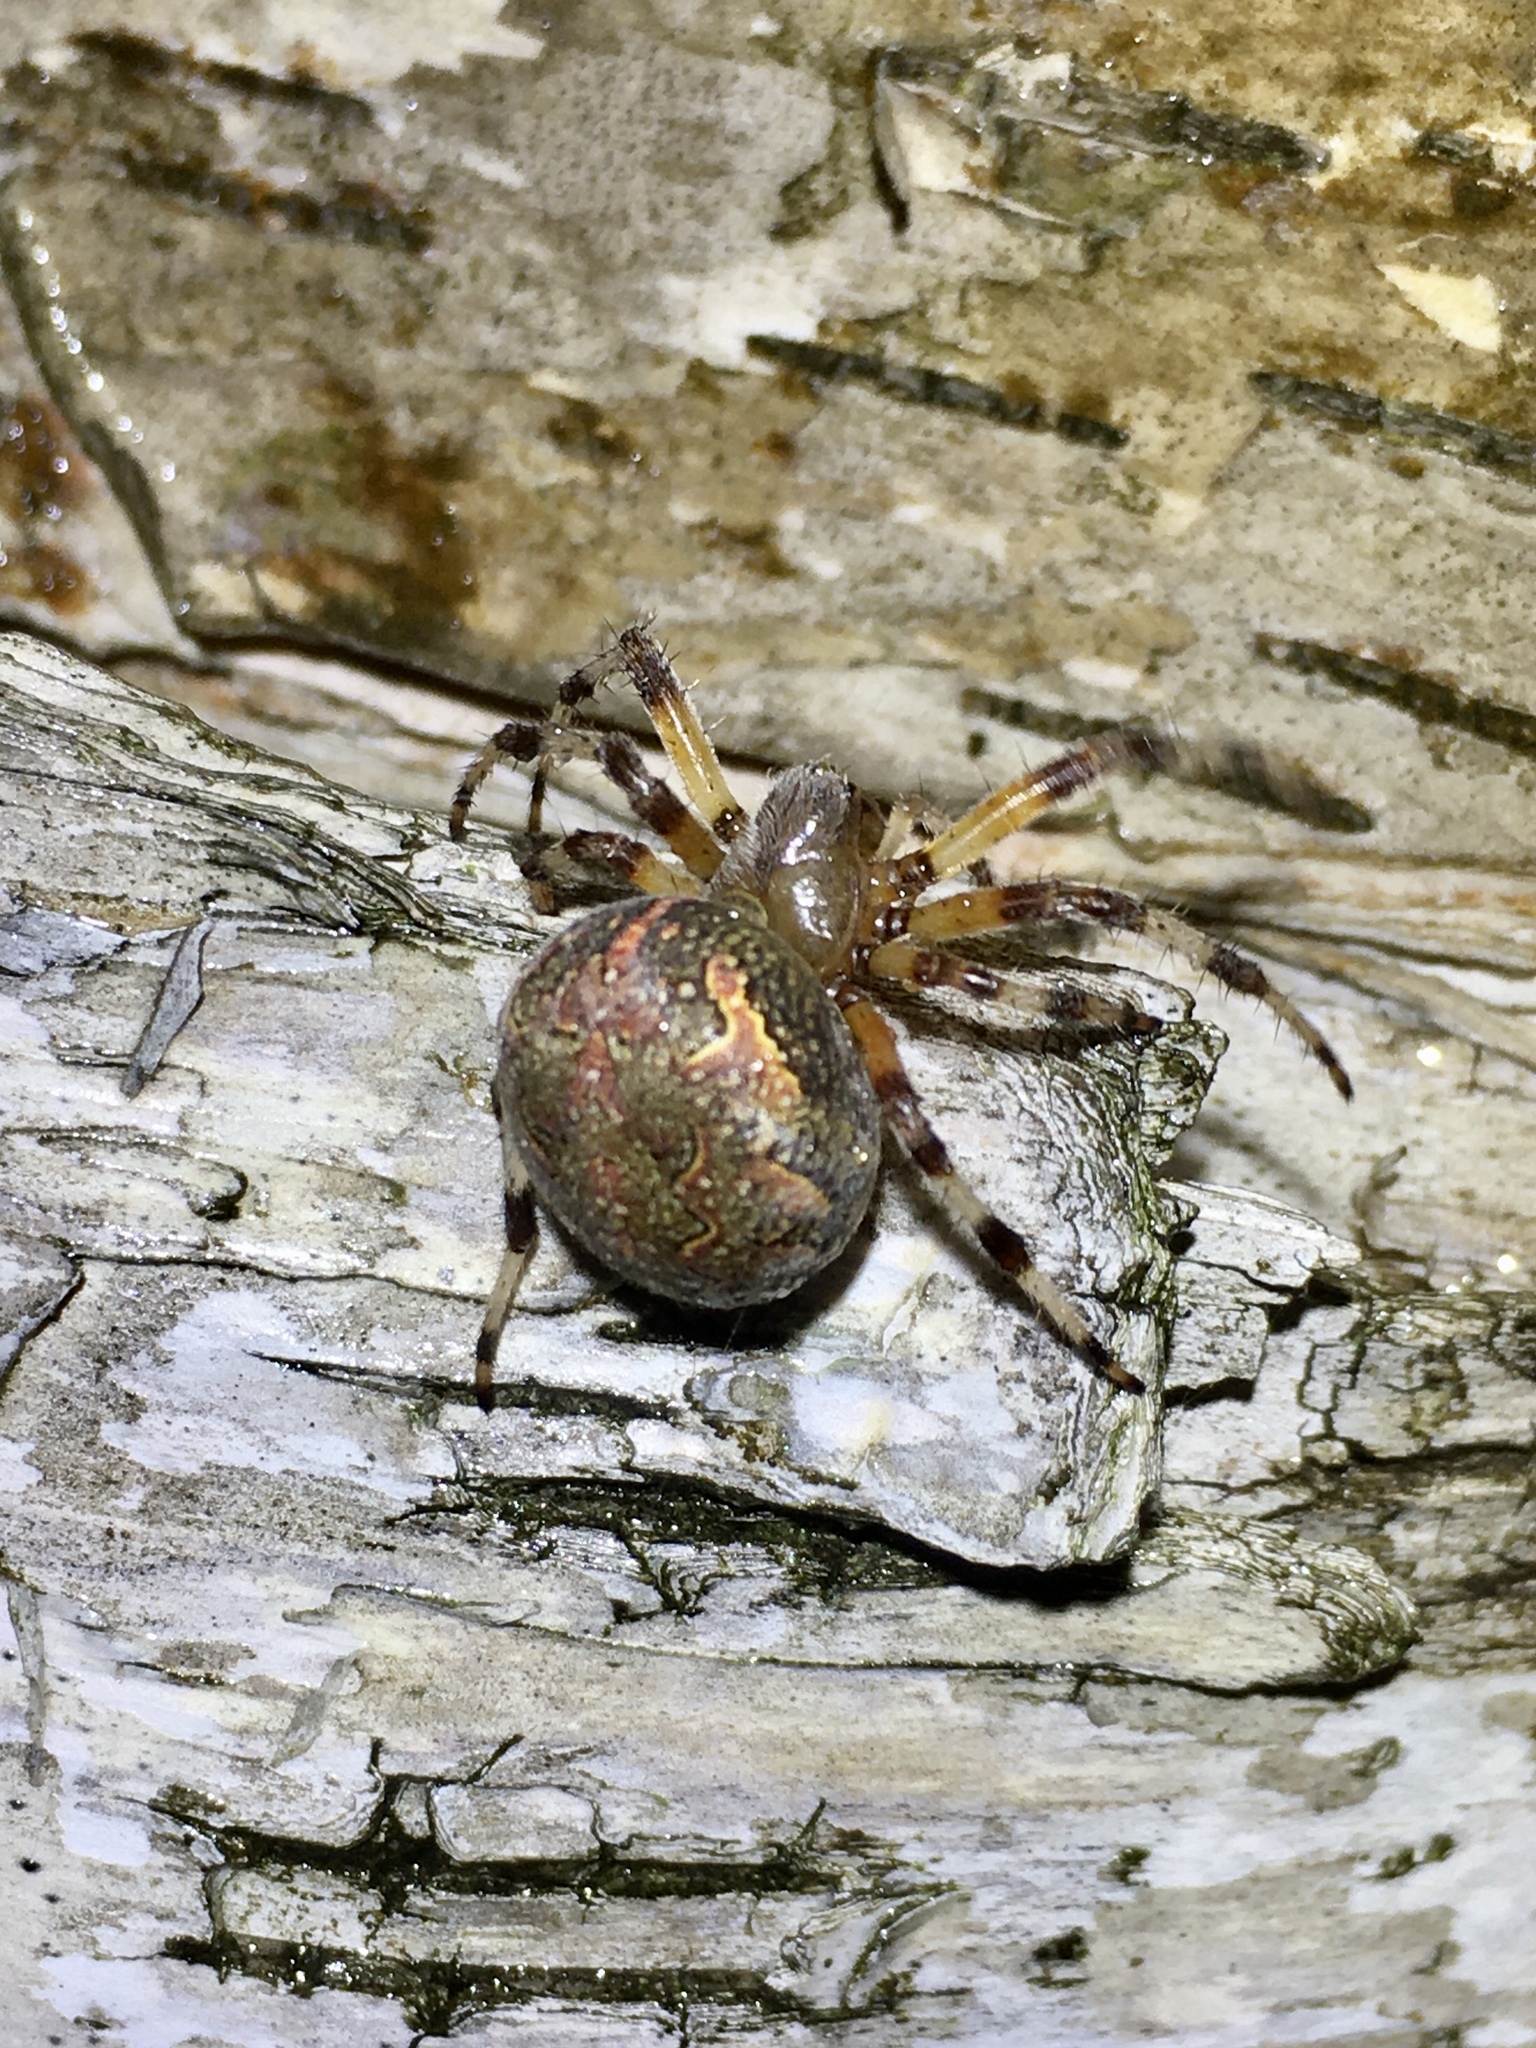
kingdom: Animalia
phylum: Arthropoda
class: Arachnida
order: Araneae
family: Araneidae
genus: Araneus
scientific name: Araneus marmoreus
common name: Marbled orbweaver
